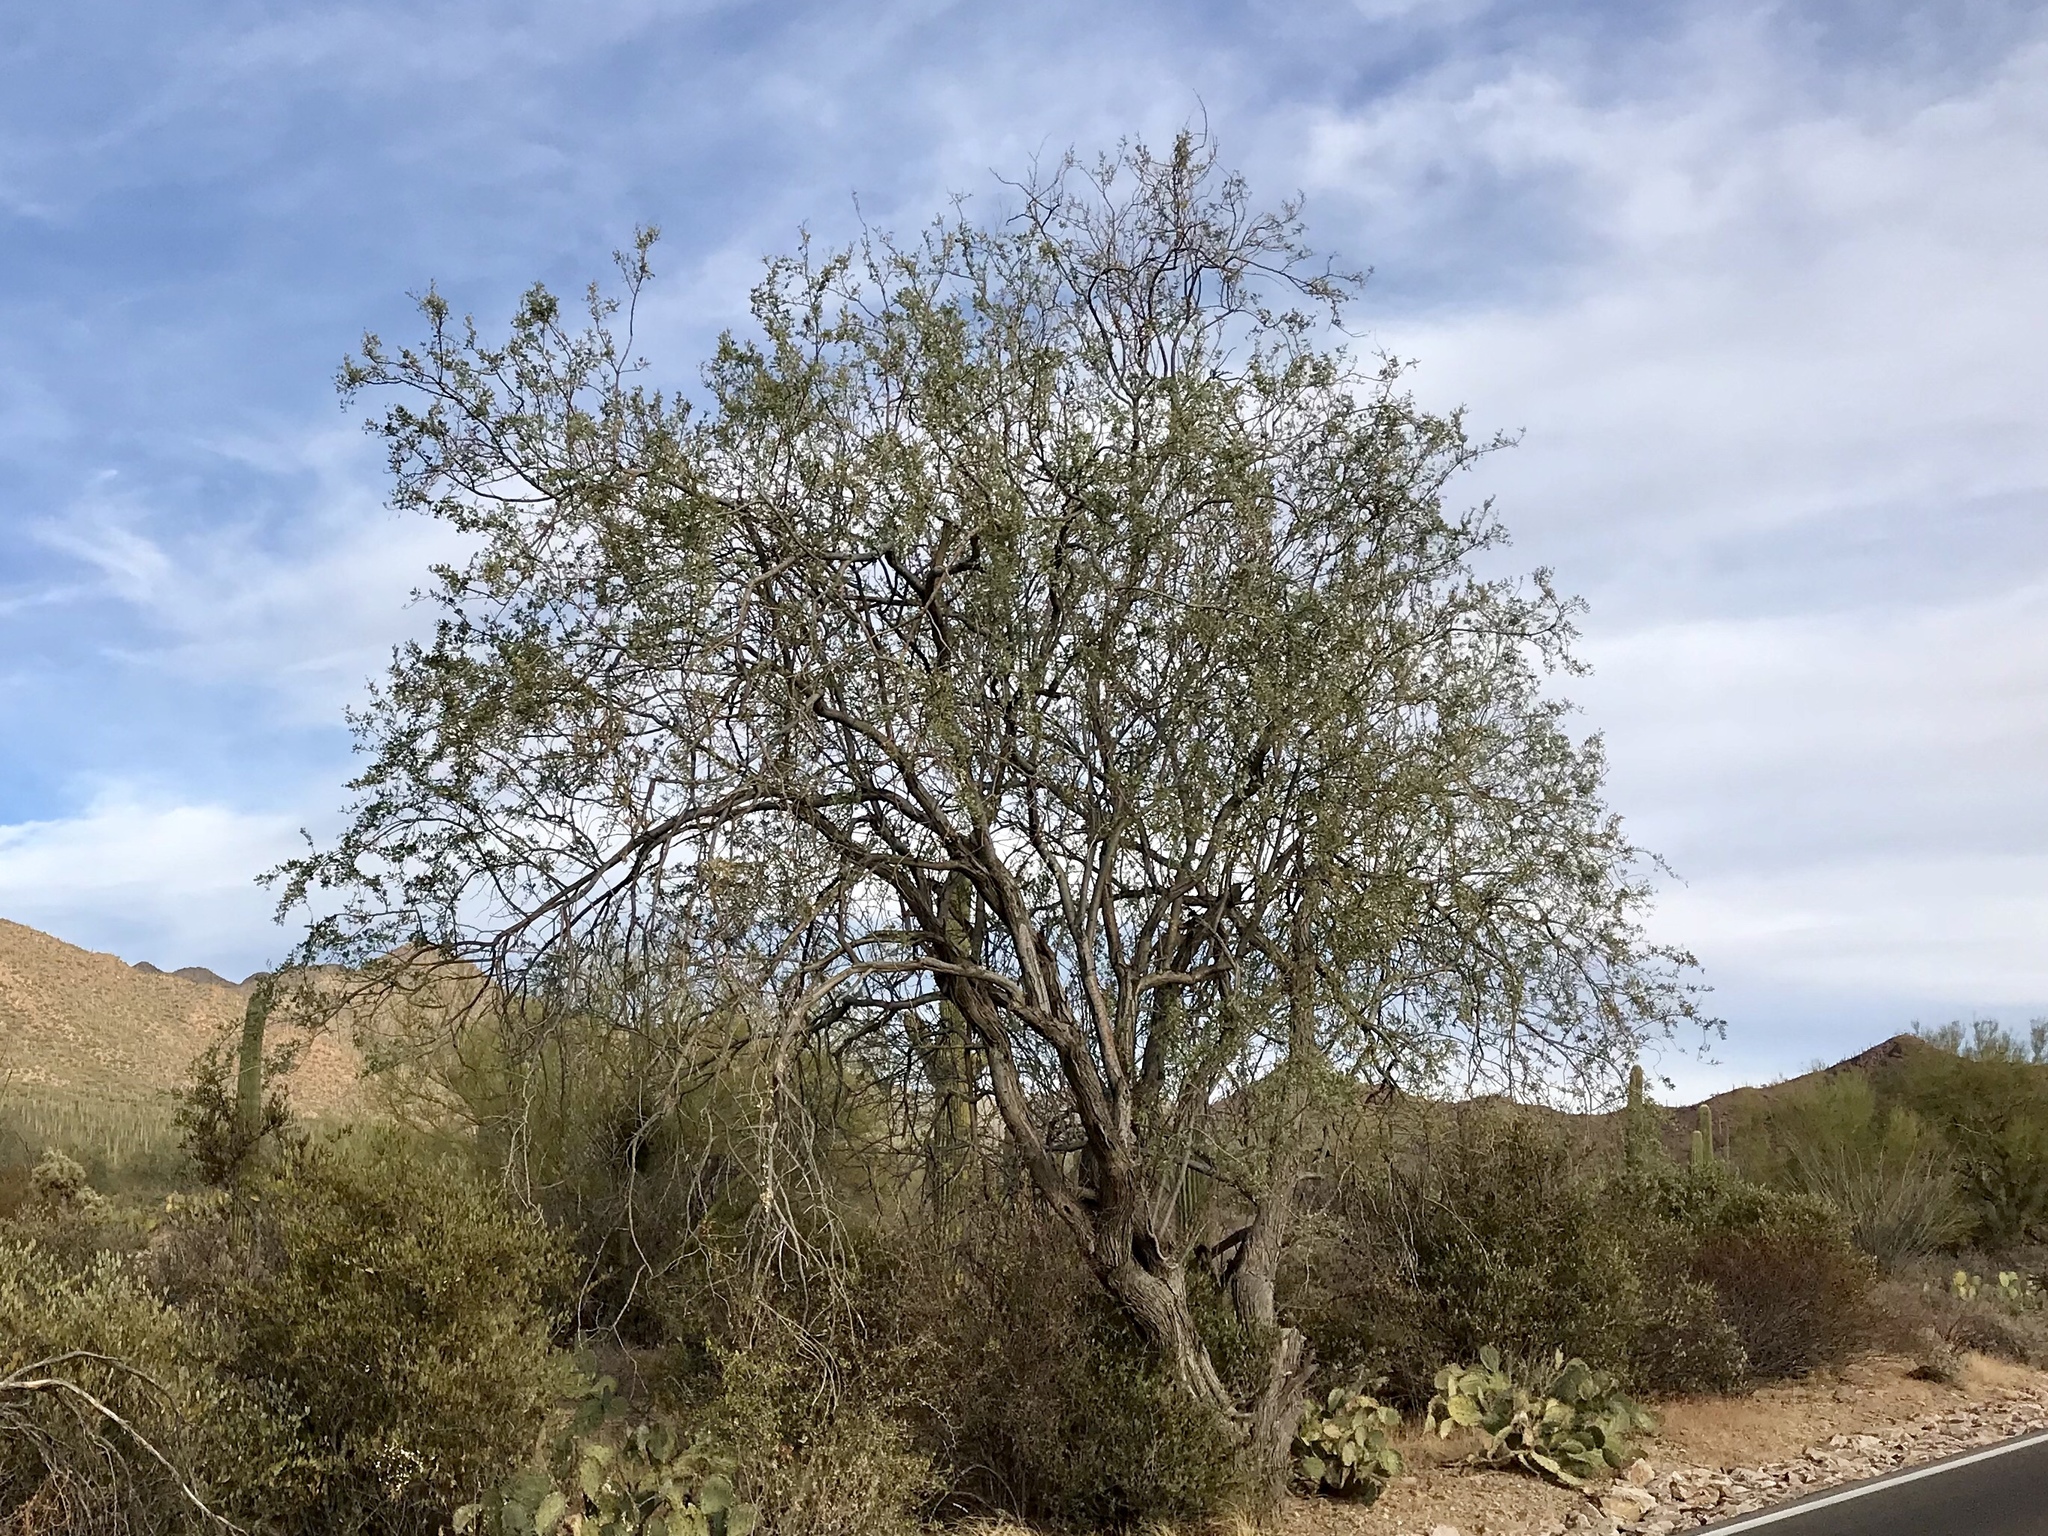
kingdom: Plantae
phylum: Tracheophyta
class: Magnoliopsida
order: Fabales
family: Fabaceae
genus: Olneya
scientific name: Olneya tesota
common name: Desert ironwood
